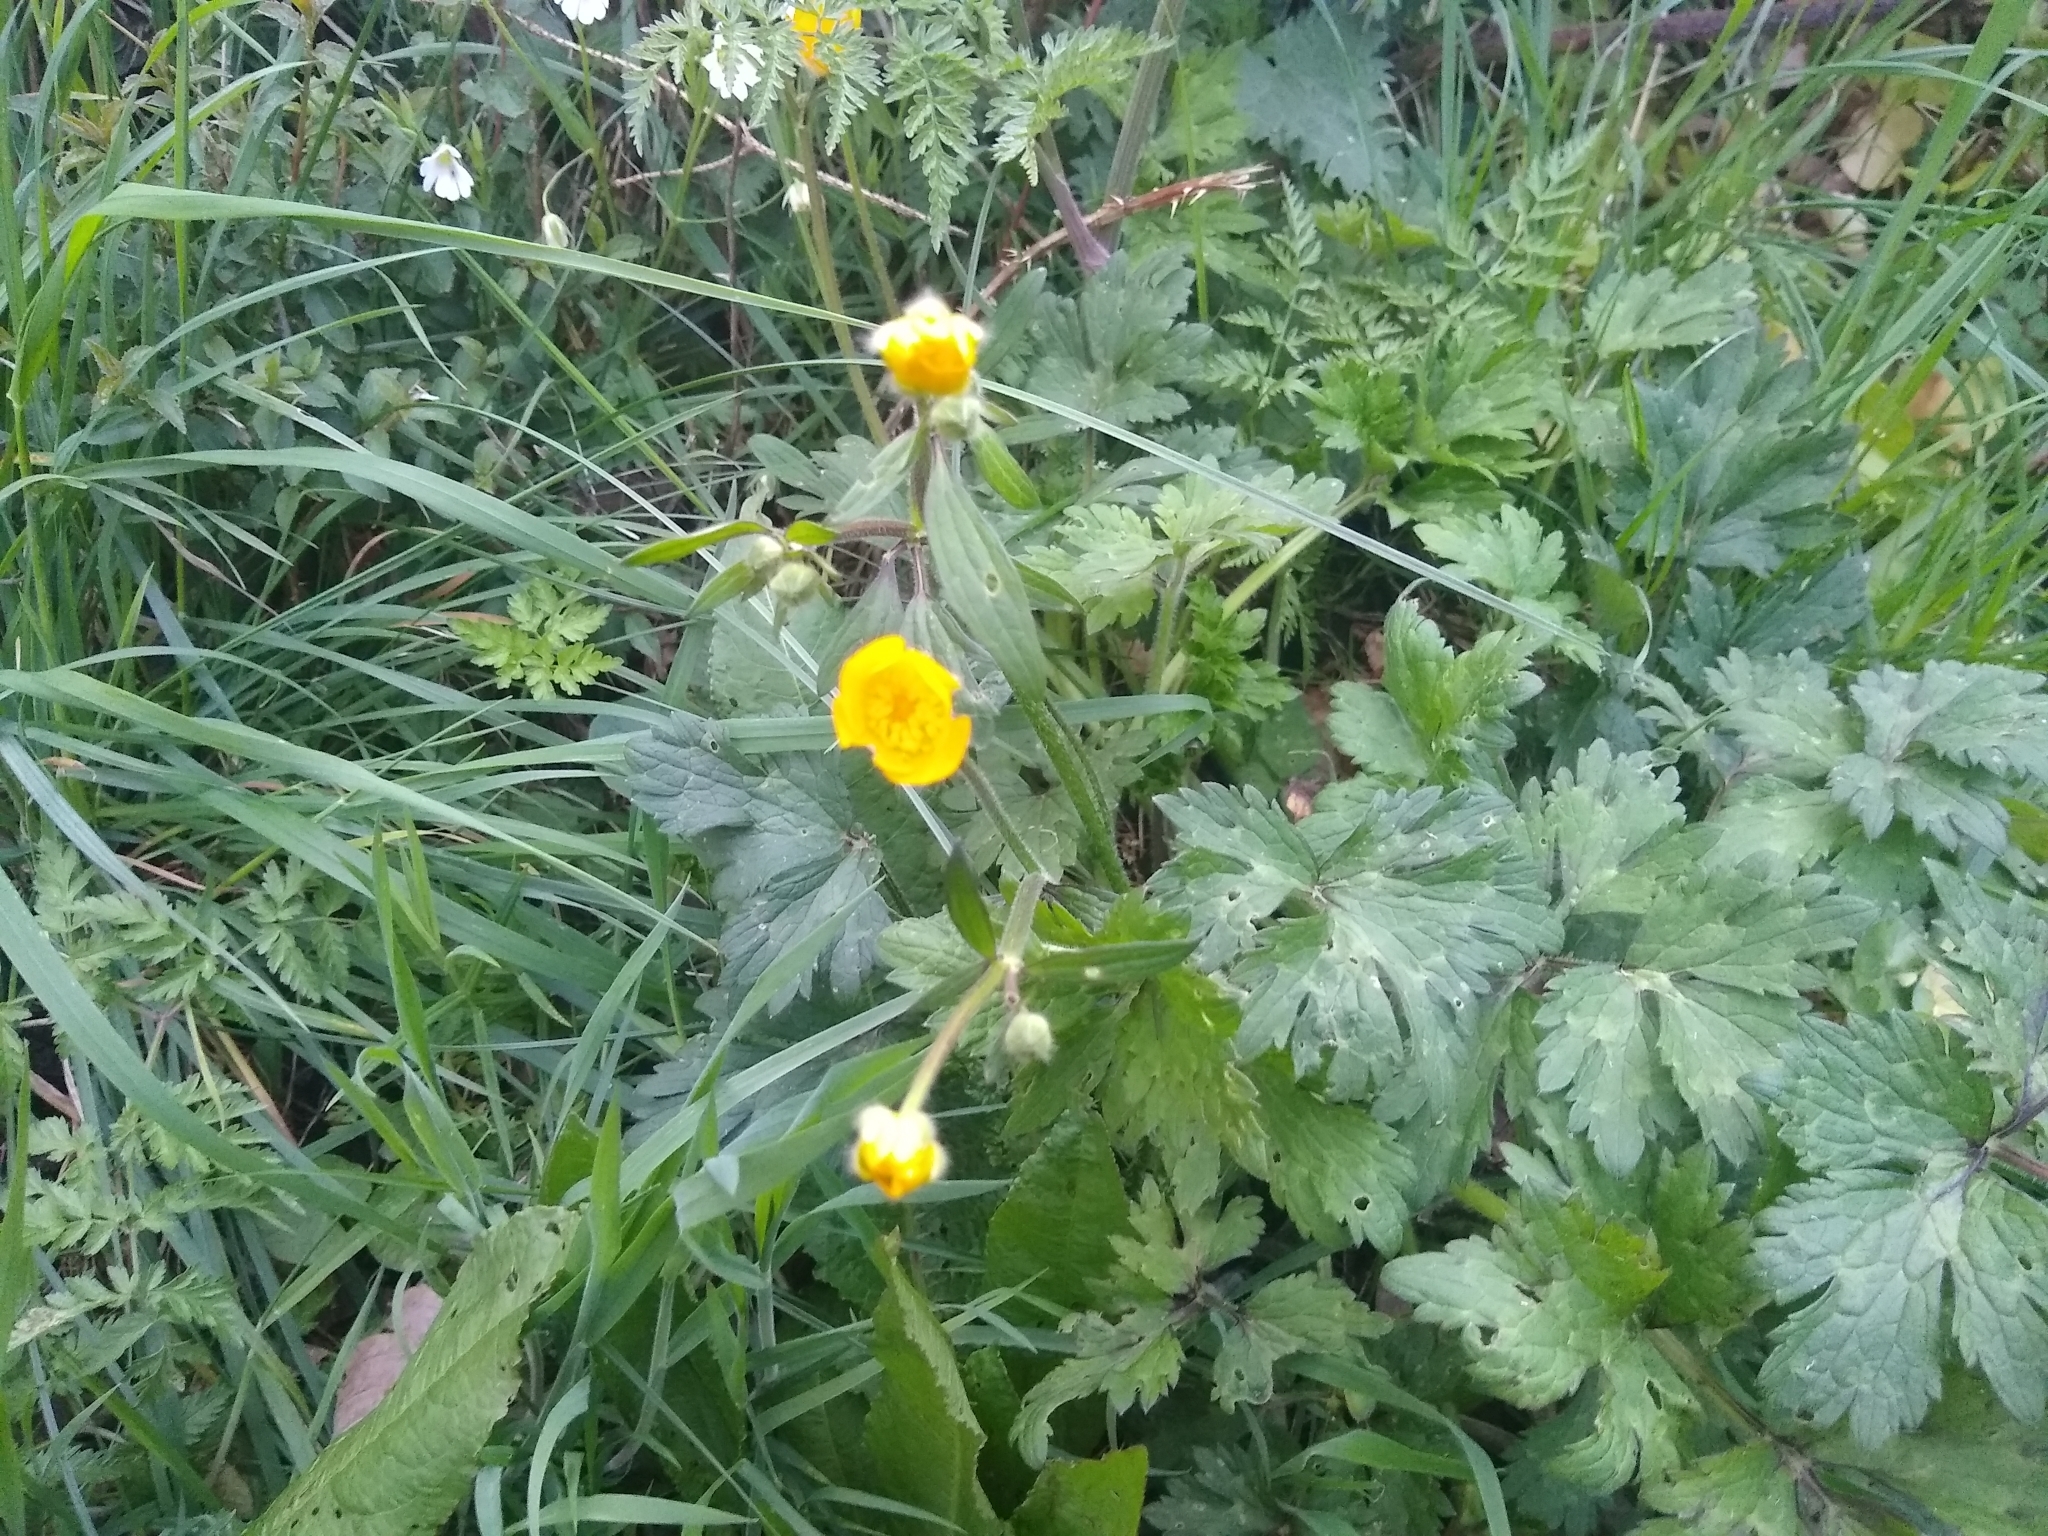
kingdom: Plantae
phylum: Tracheophyta
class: Magnoliopsida
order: Ranunculales
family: Ranunculaceae
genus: Ranunculus
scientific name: Ranunculus repens
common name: Creeping buttercup
